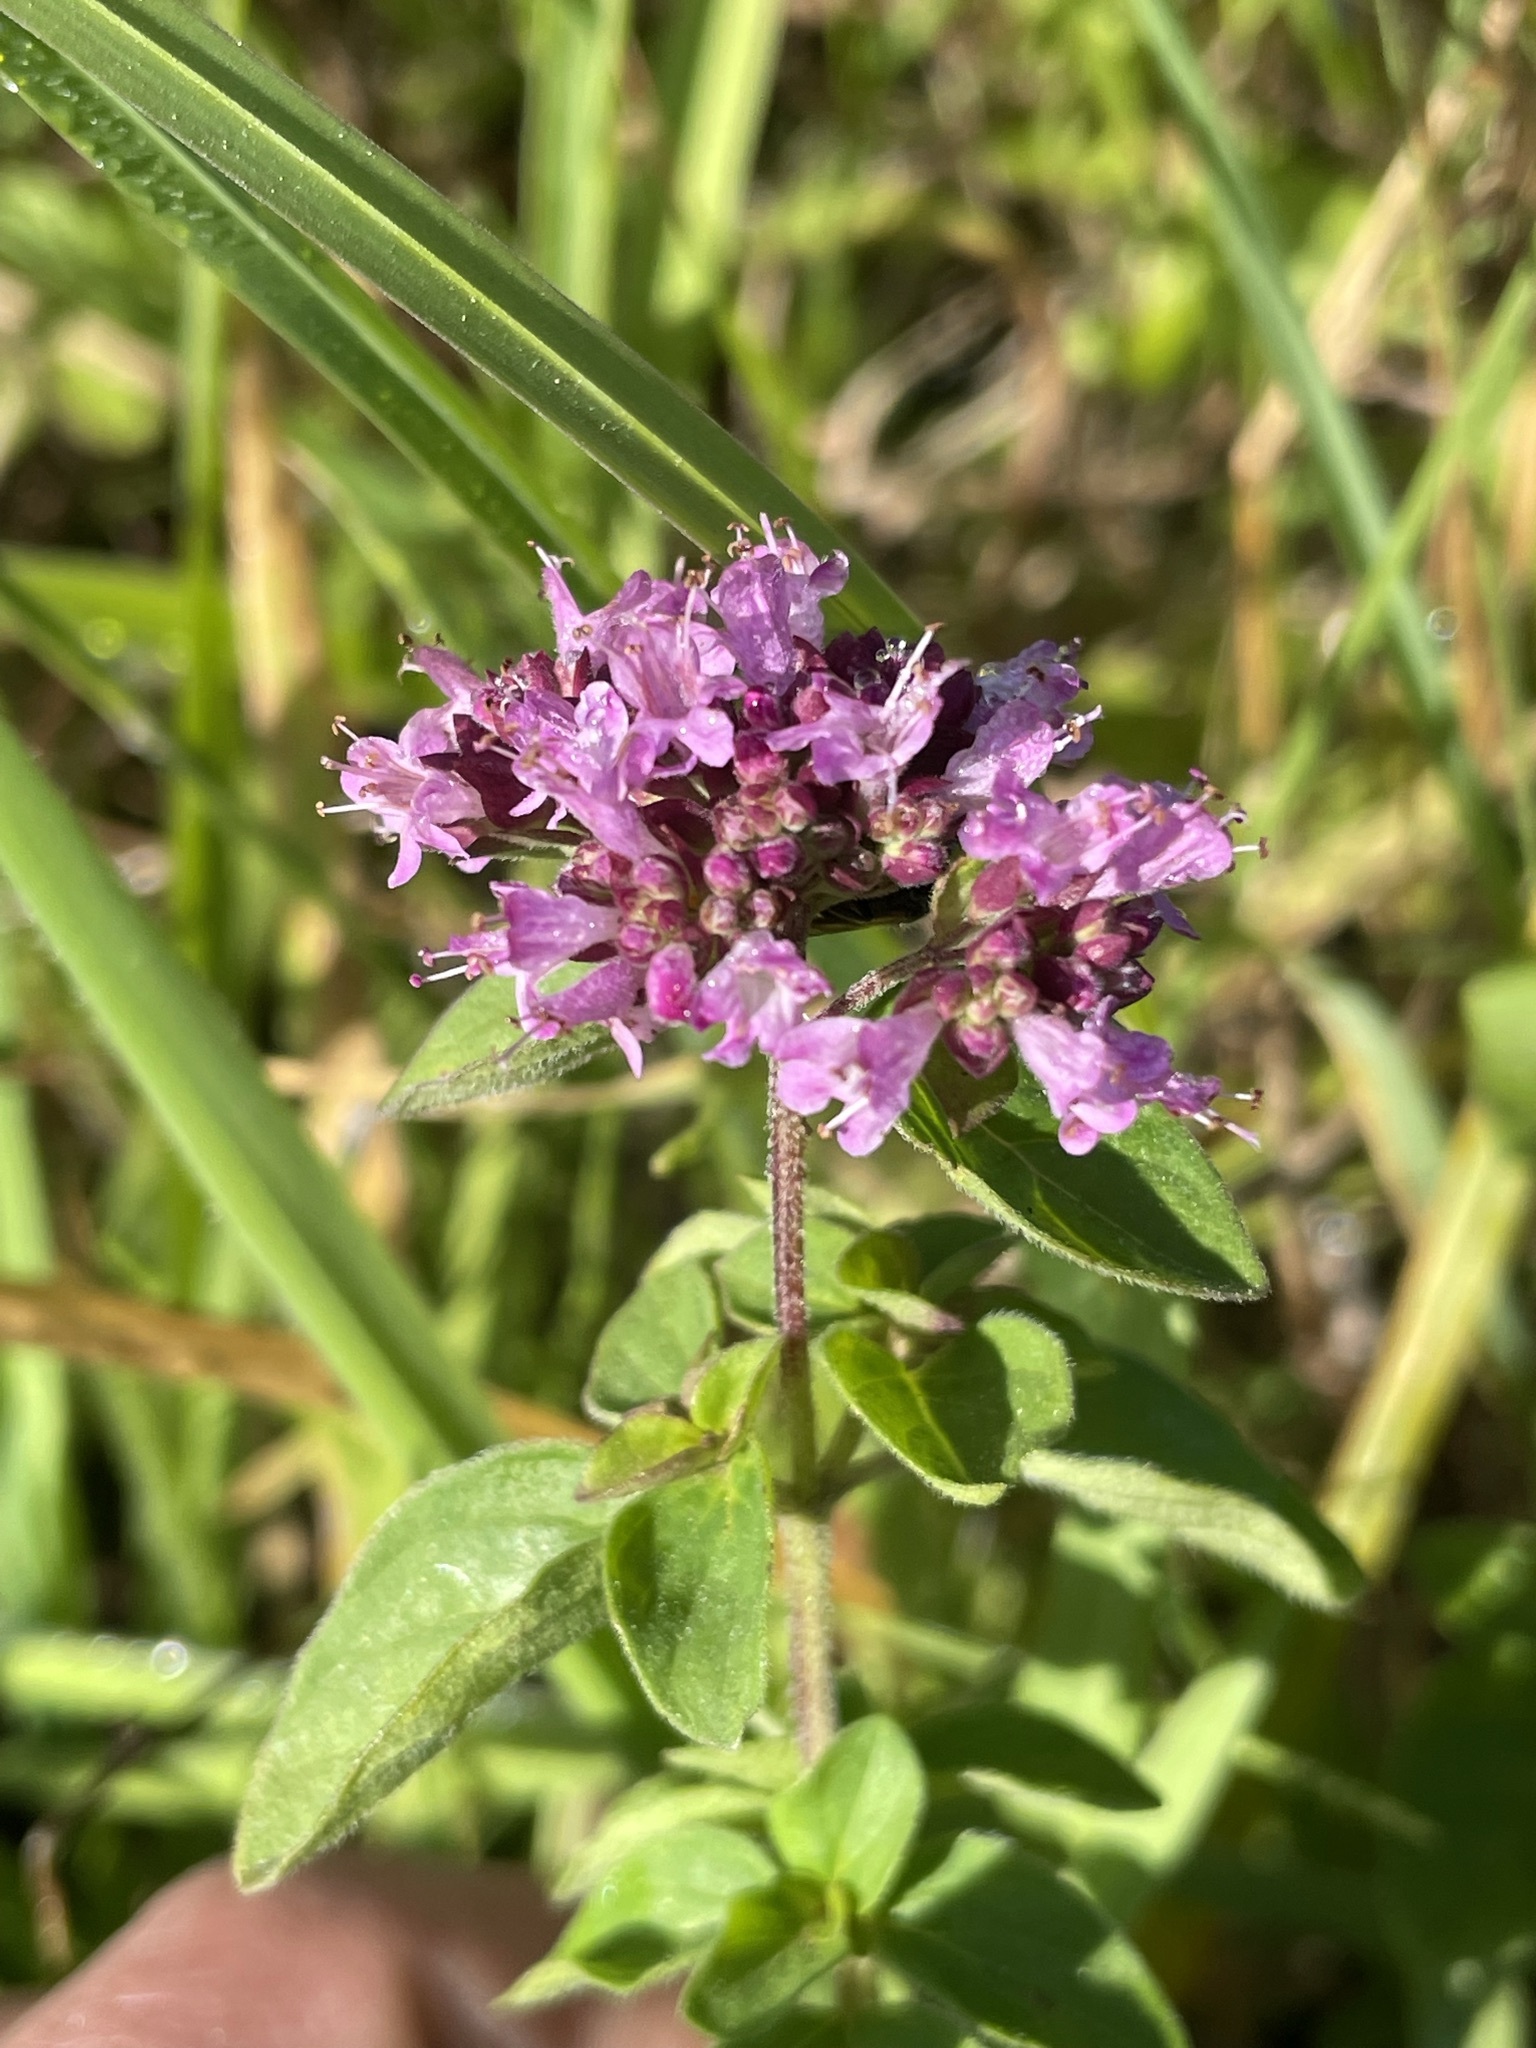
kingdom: Plantae
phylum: Tracheophyta
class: Magnoliopsida
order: Lamiales
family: Lamiaceae
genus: Origanum
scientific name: Origanum vulgare
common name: Wild marjoram
